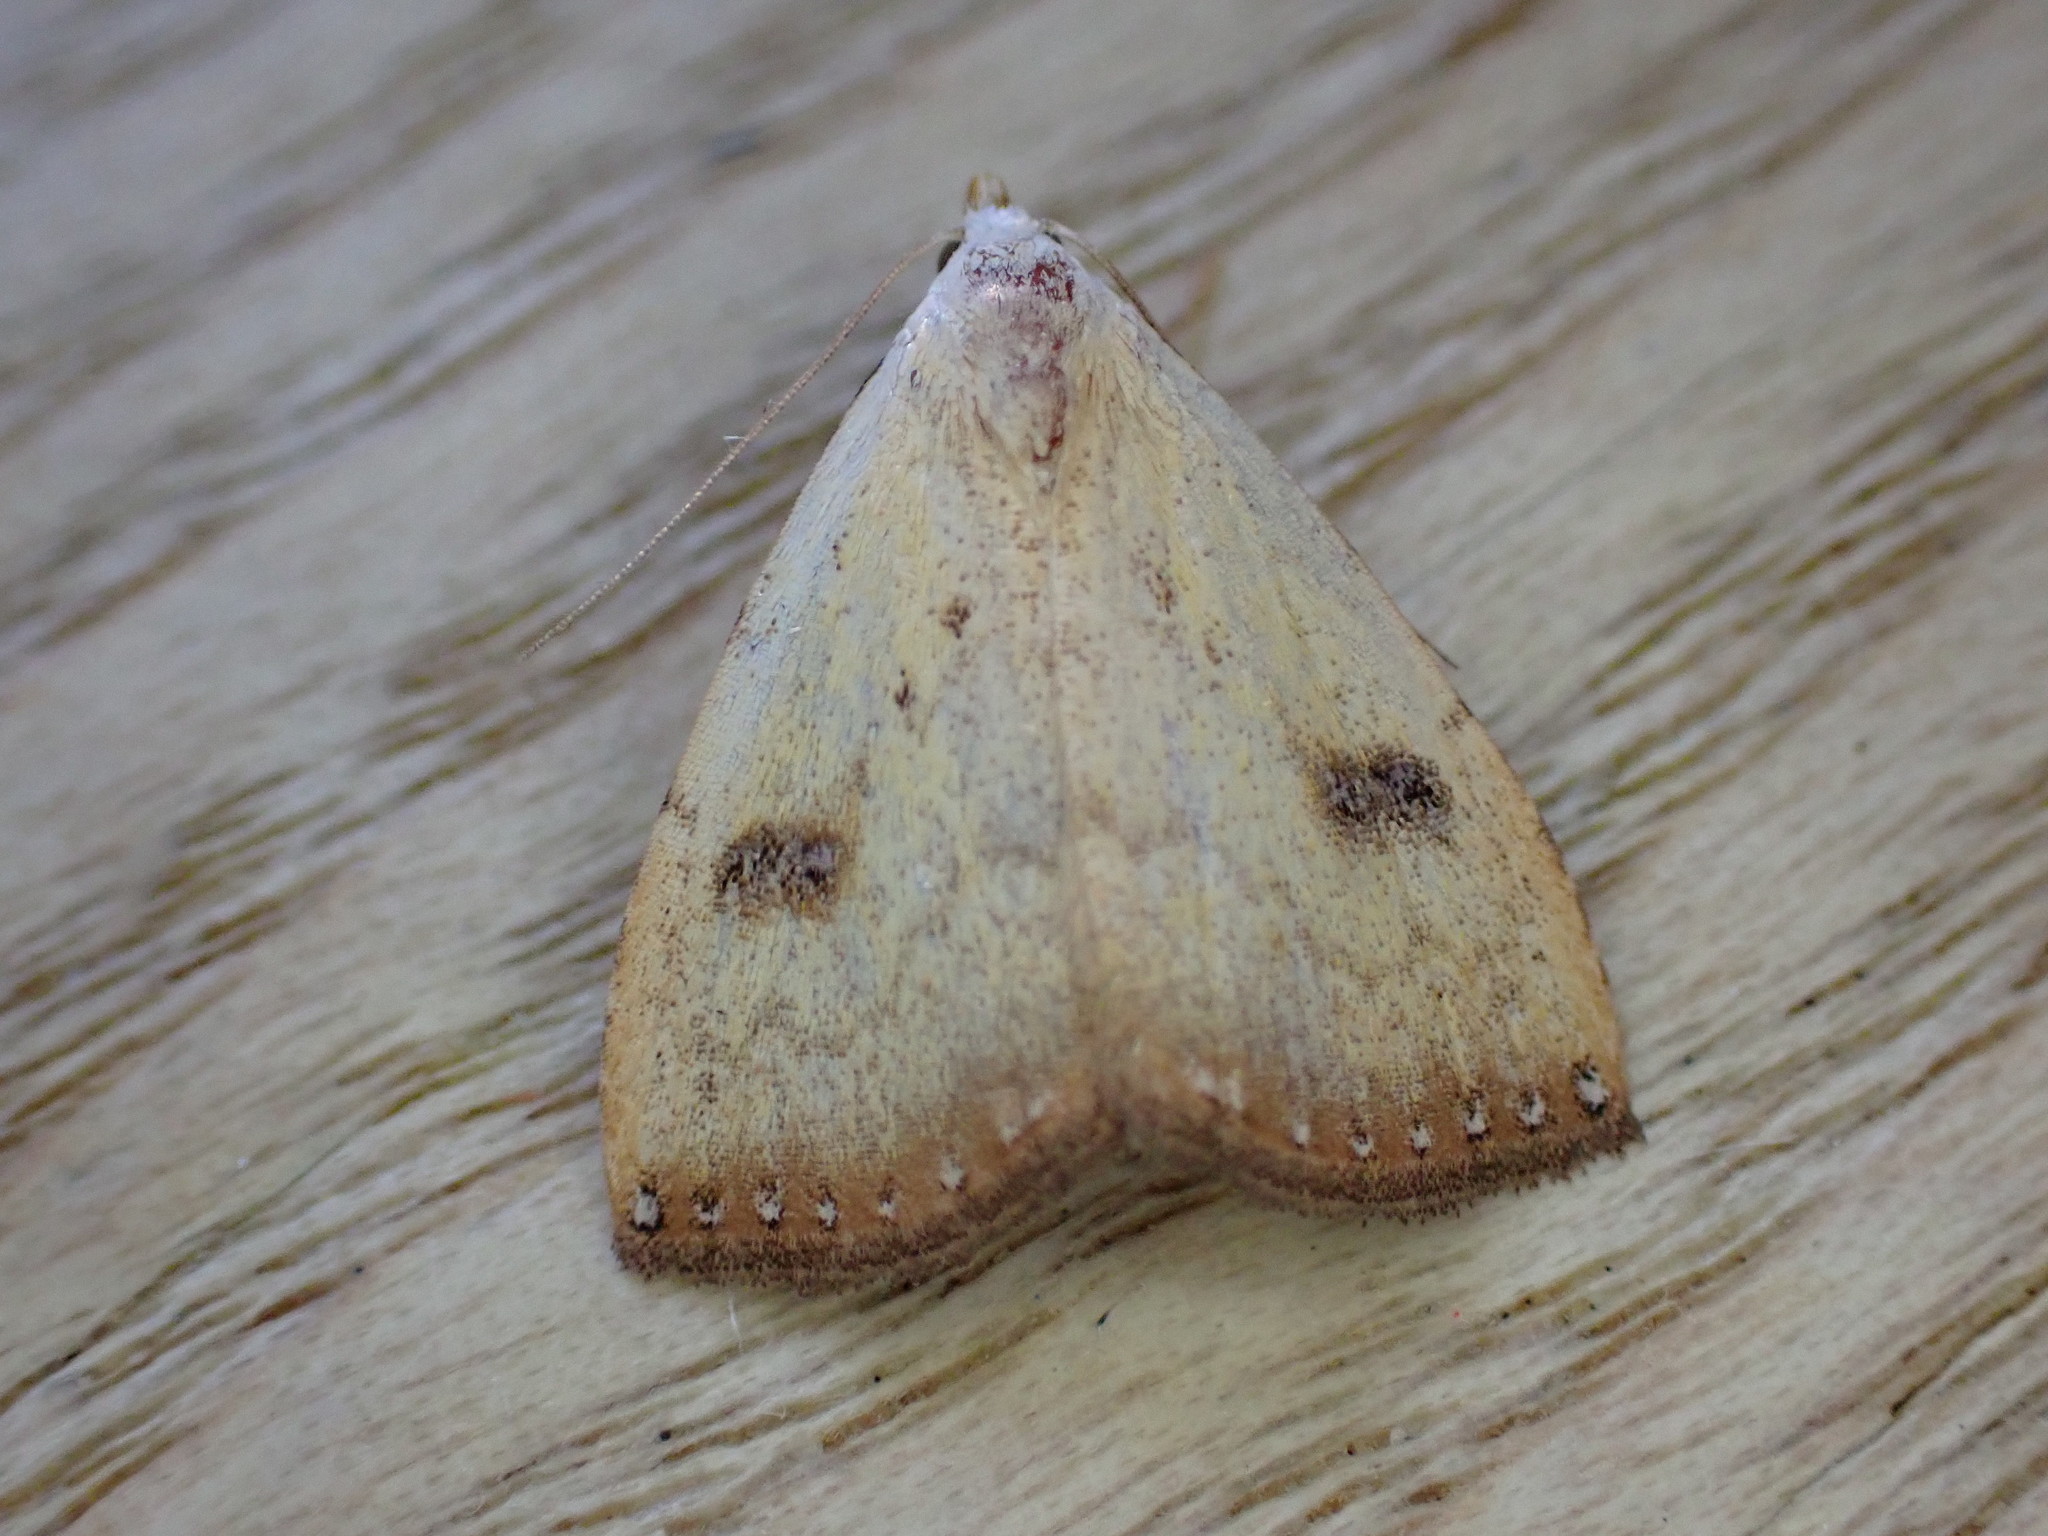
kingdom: Animalia
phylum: Arthropoda
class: Insecta
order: Lepidoptera
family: Erebidae
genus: Rivula
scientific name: Rivula sericealis
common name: Straw dot
